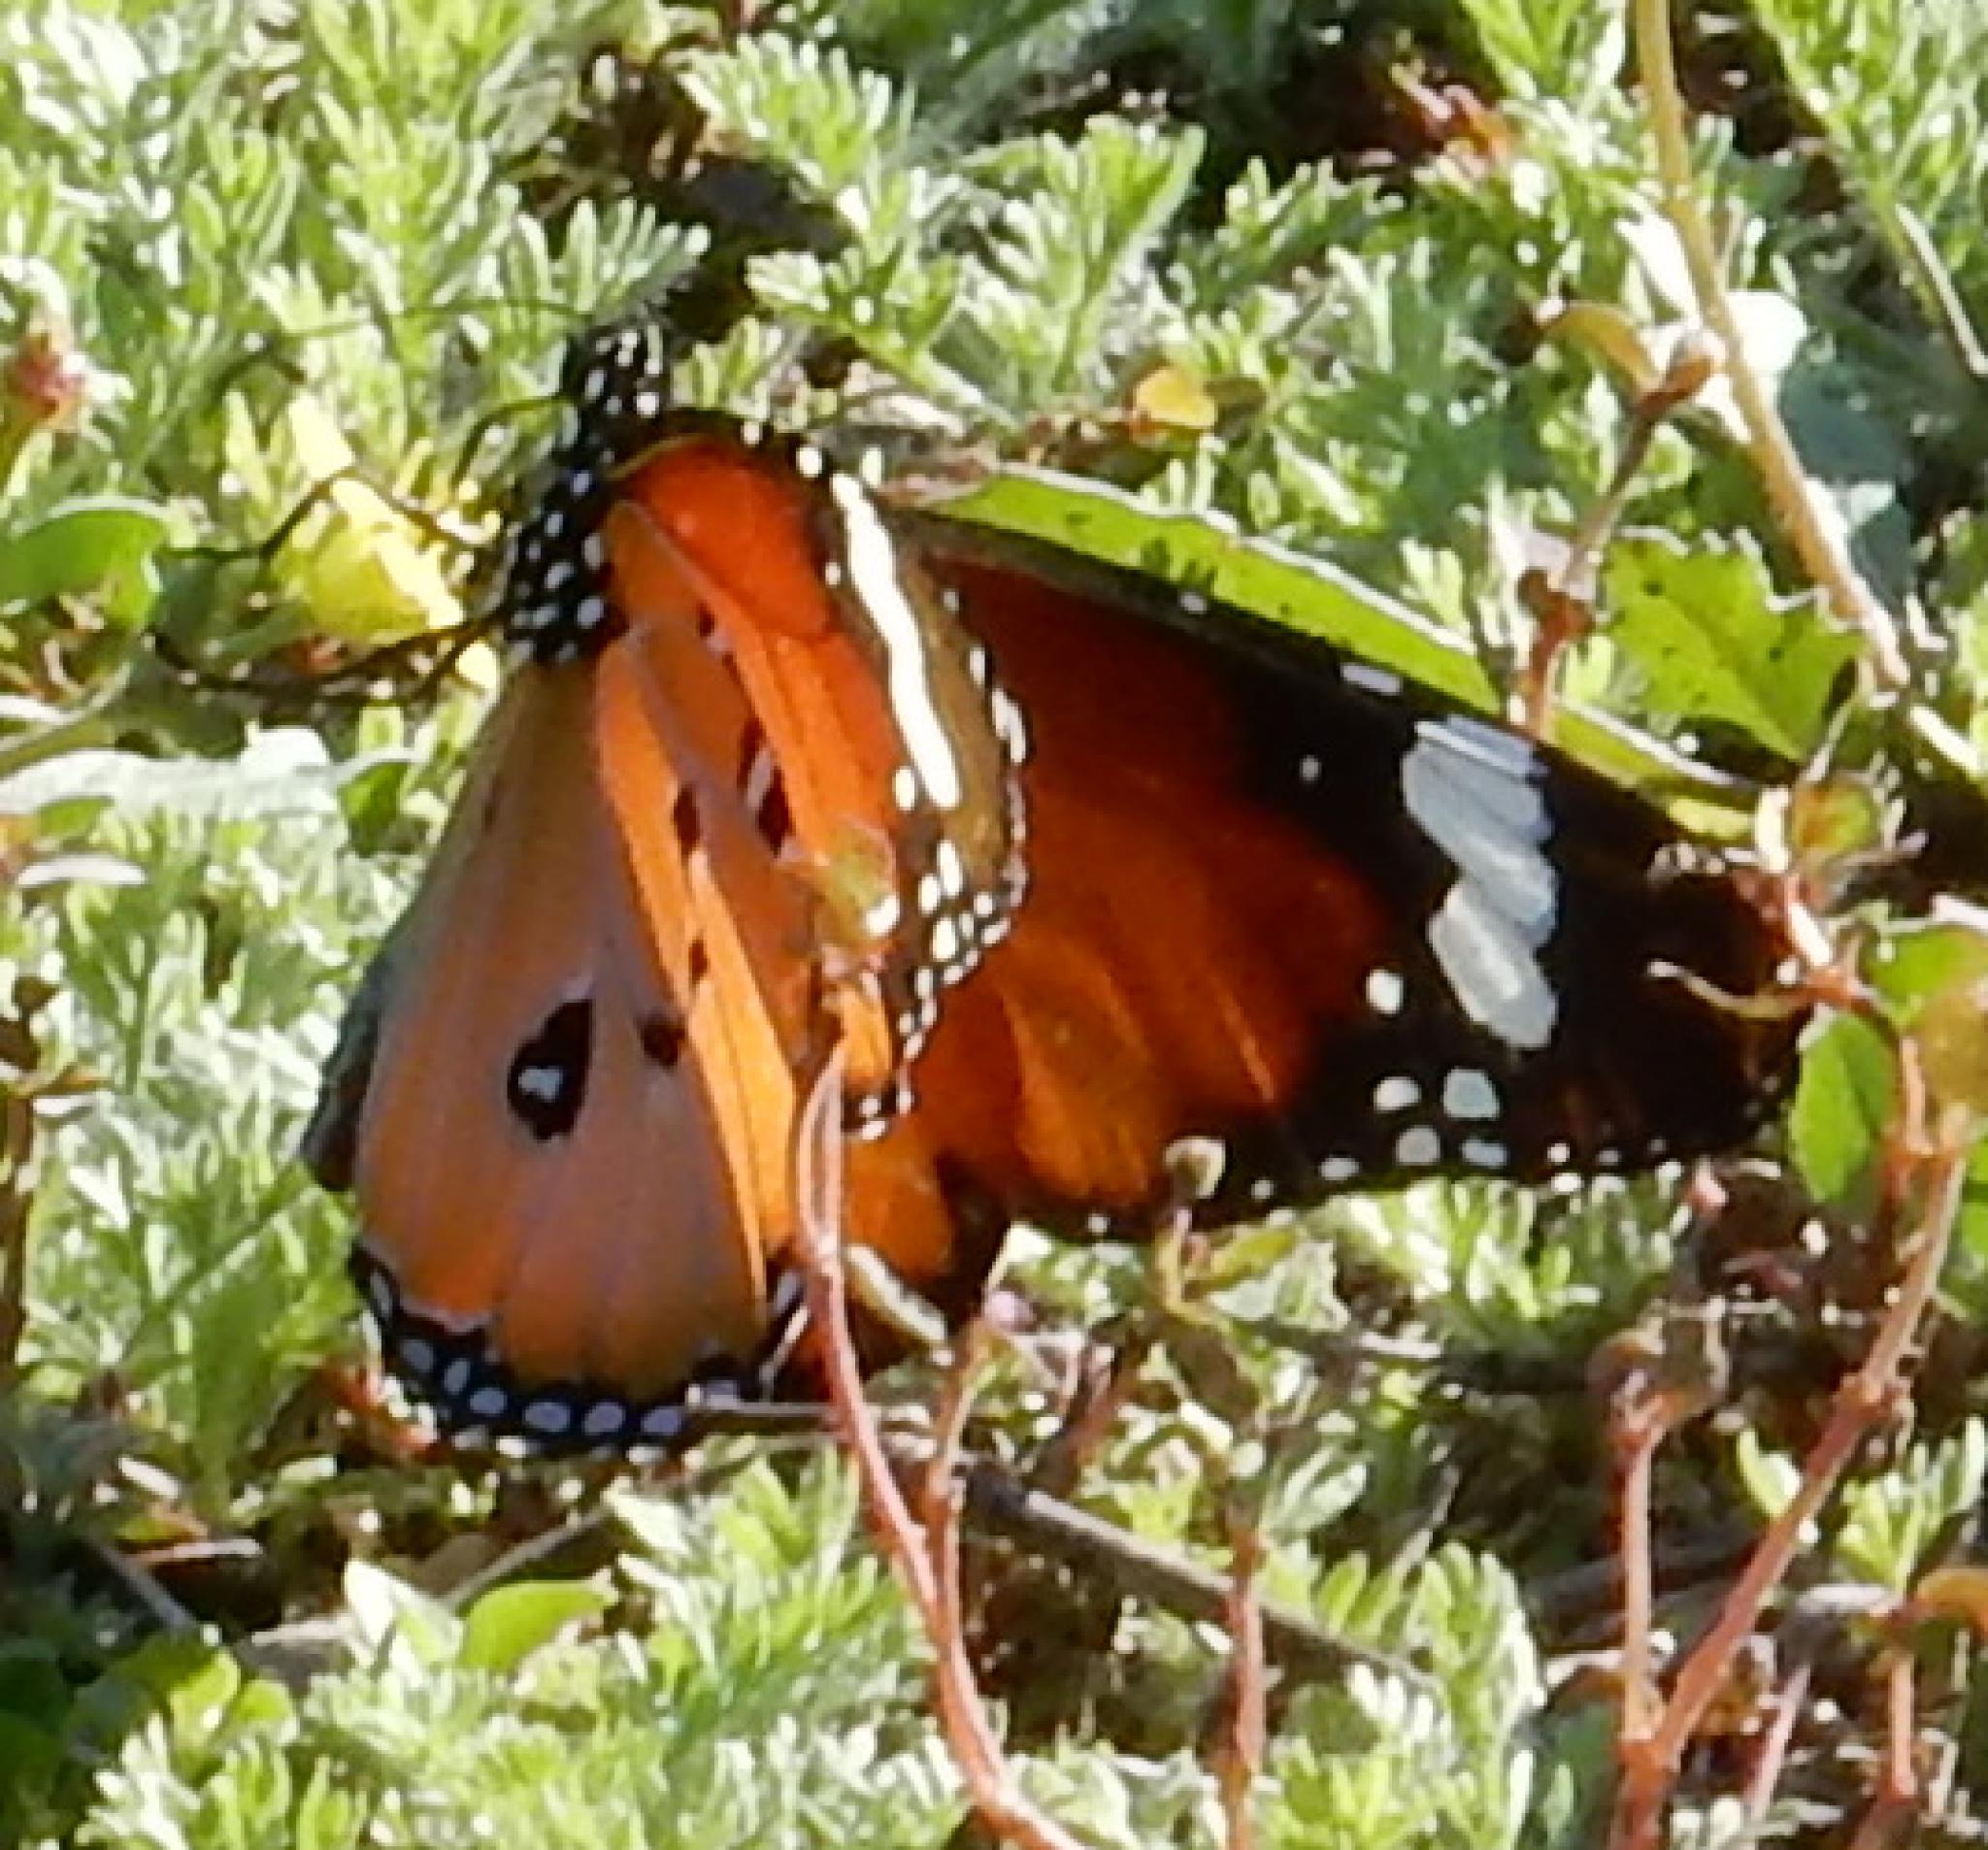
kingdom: Animalia
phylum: Arthropoda
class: Insecta
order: Lepidoptera
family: Nymphalidae
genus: Danaus
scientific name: Danaus chrysippus
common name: Plain tiger
